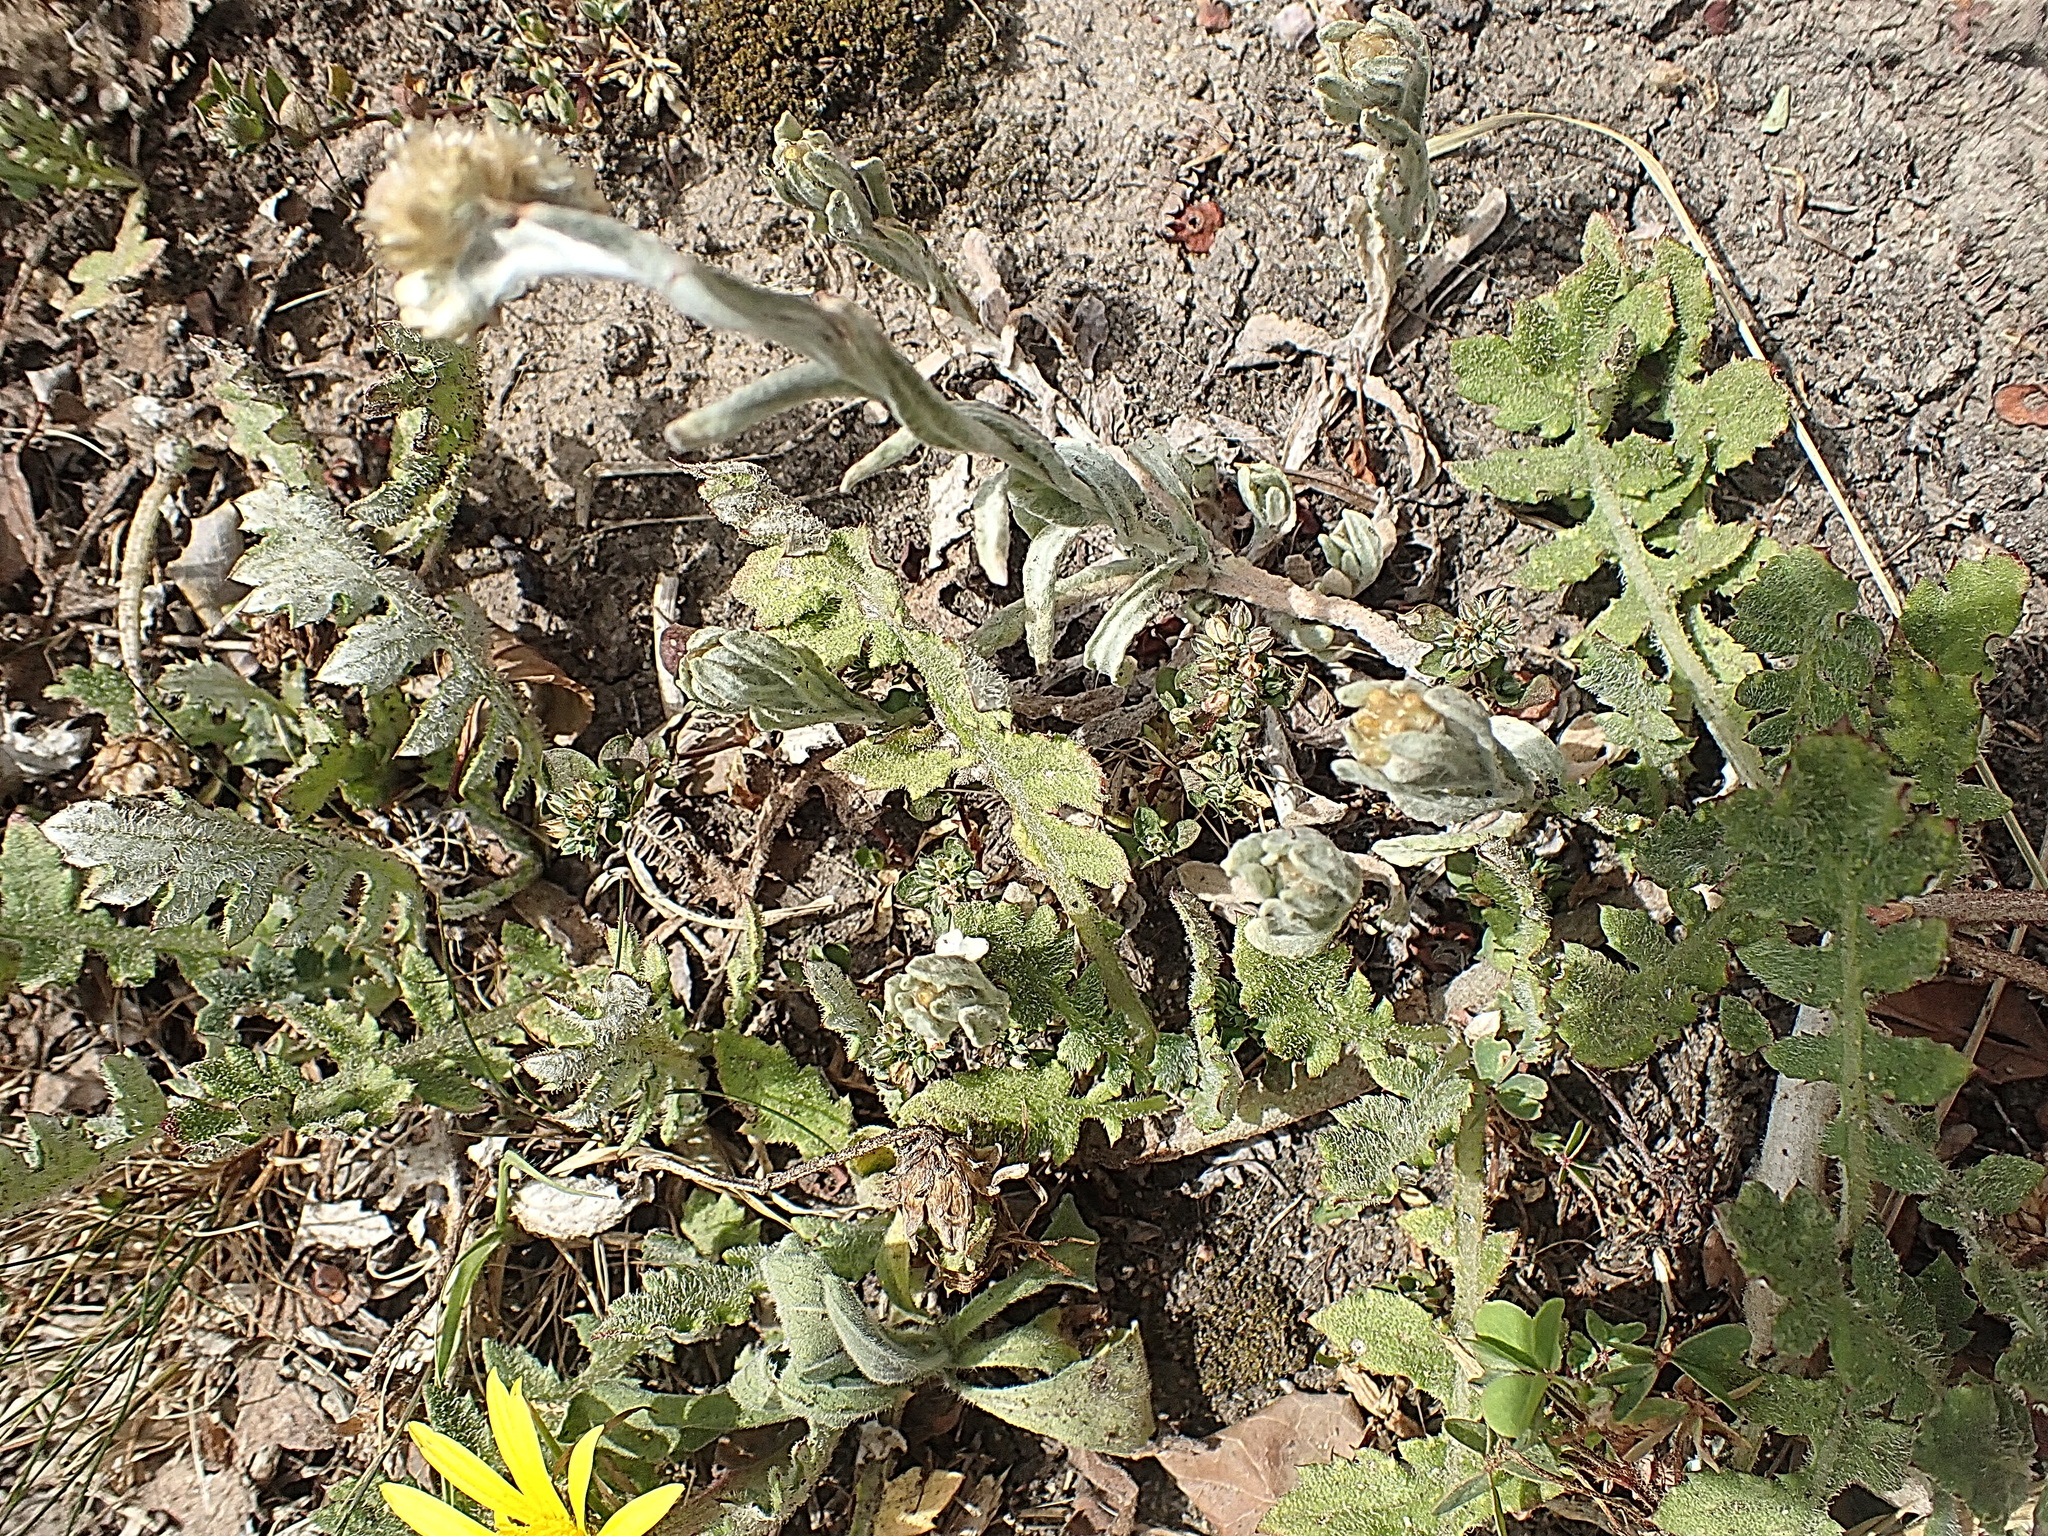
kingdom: Plantae
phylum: Tracheophyta
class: Magnoliopsida
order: Asterales
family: Asteraceae
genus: Arctotheca
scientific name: Arctotheca prostrata
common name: Capeweed
